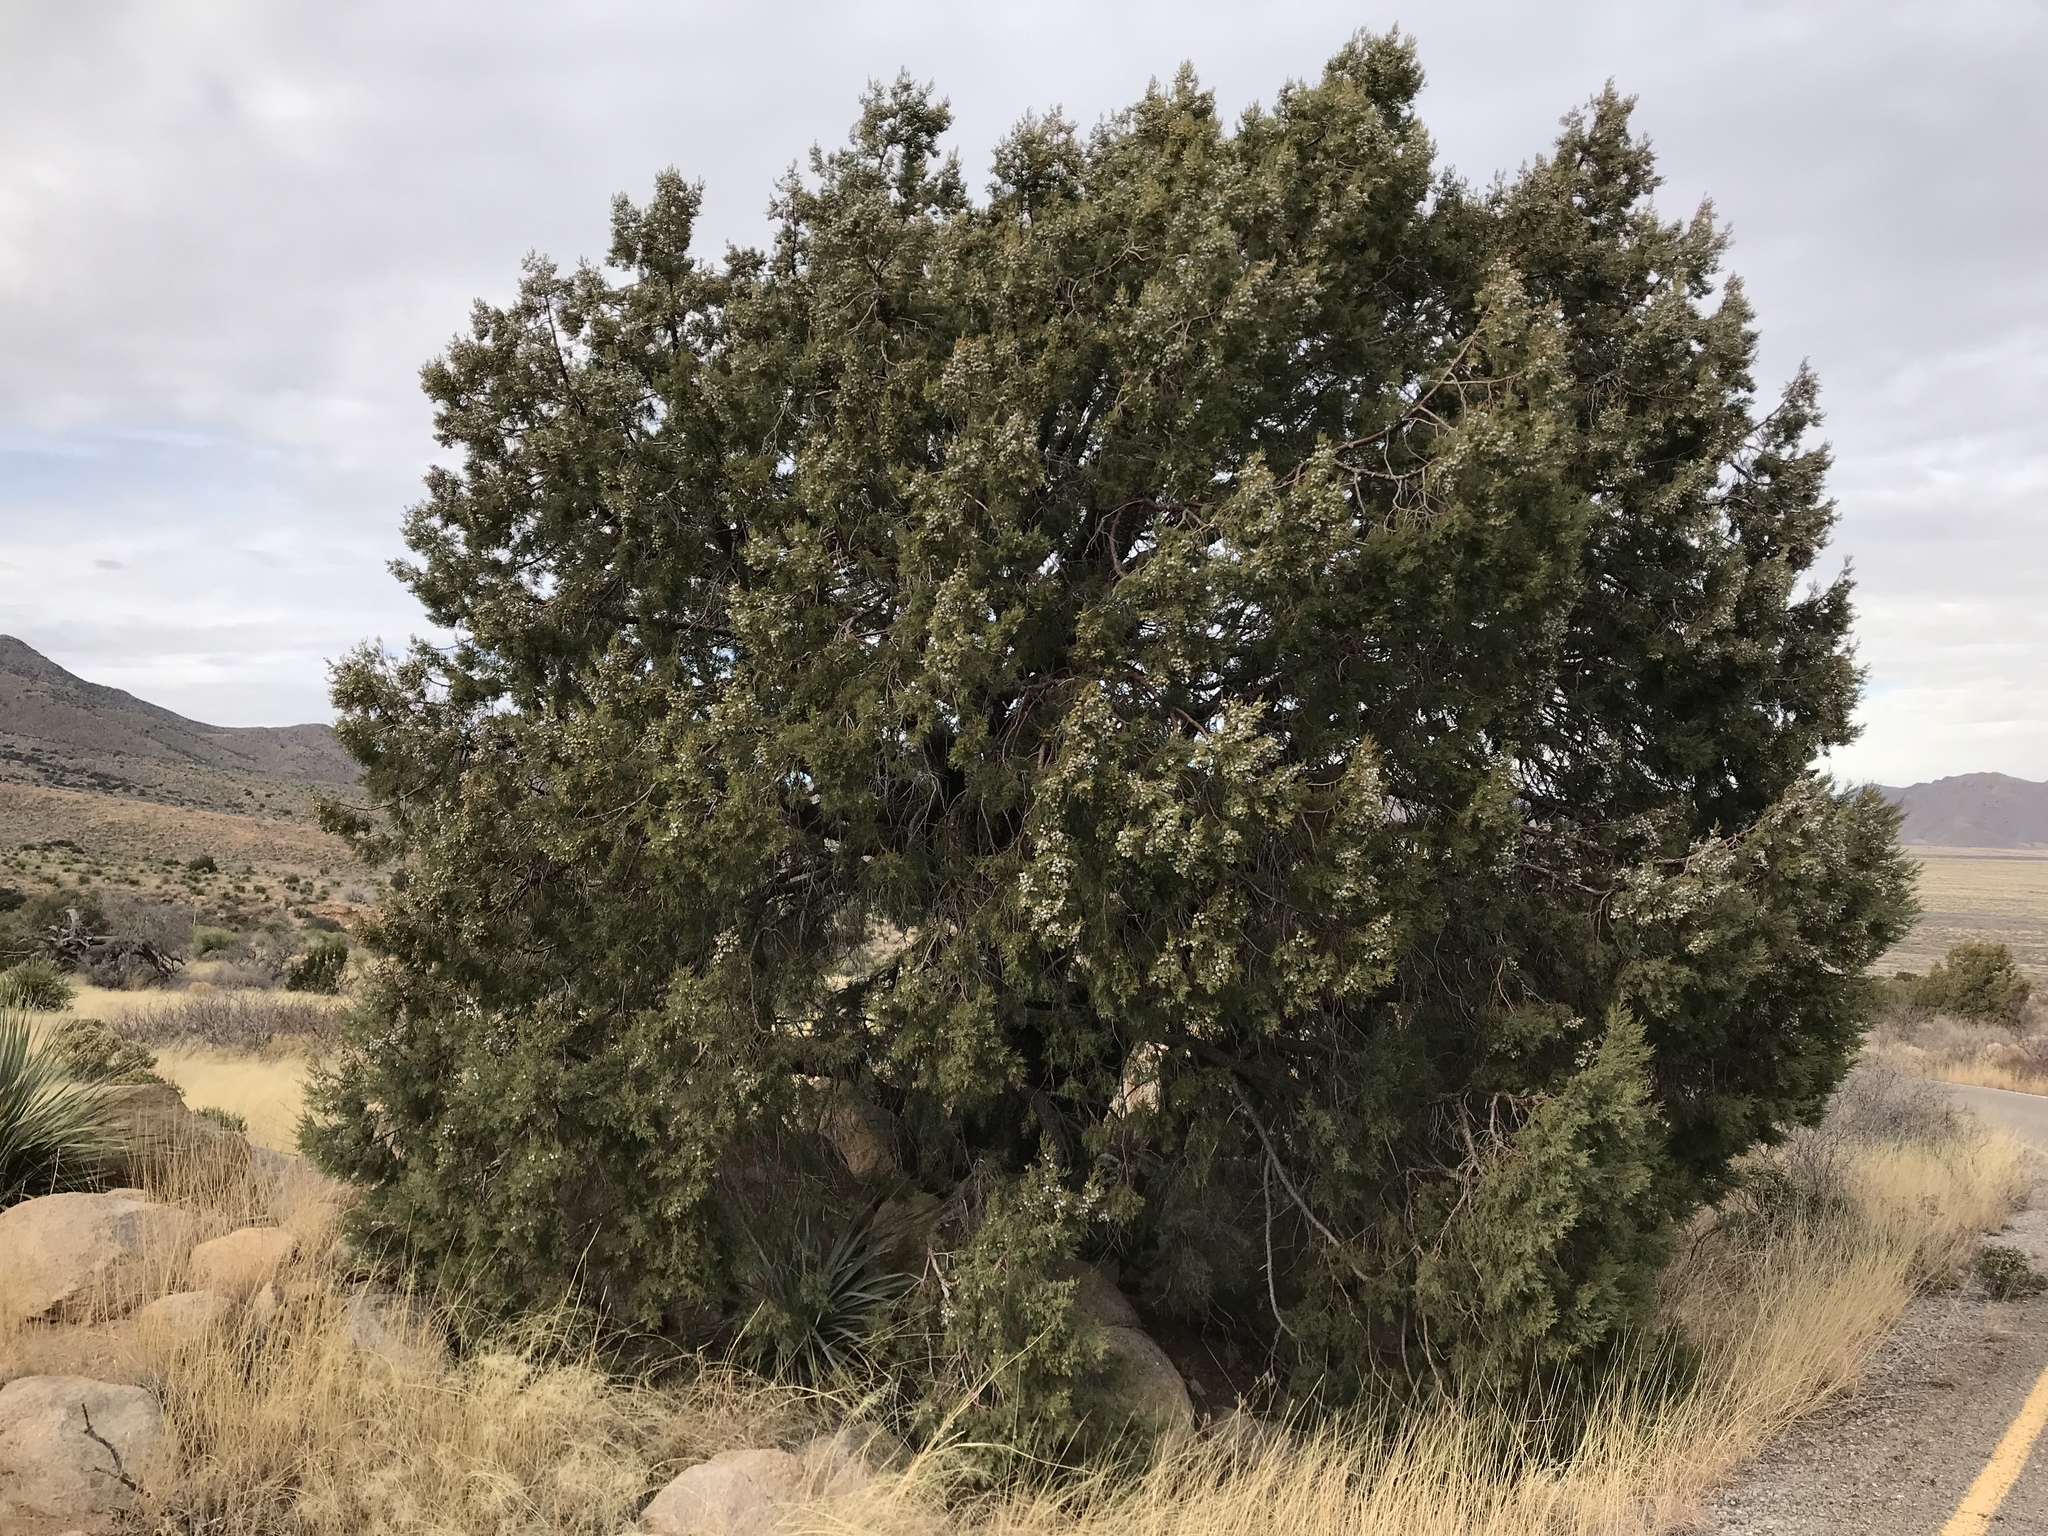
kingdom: Plantae
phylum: Tracheophyta
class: Pinopsida
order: Pinales
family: Cupressaceae
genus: Juniperus
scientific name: Juniperus deppeana
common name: Alligator juniper
